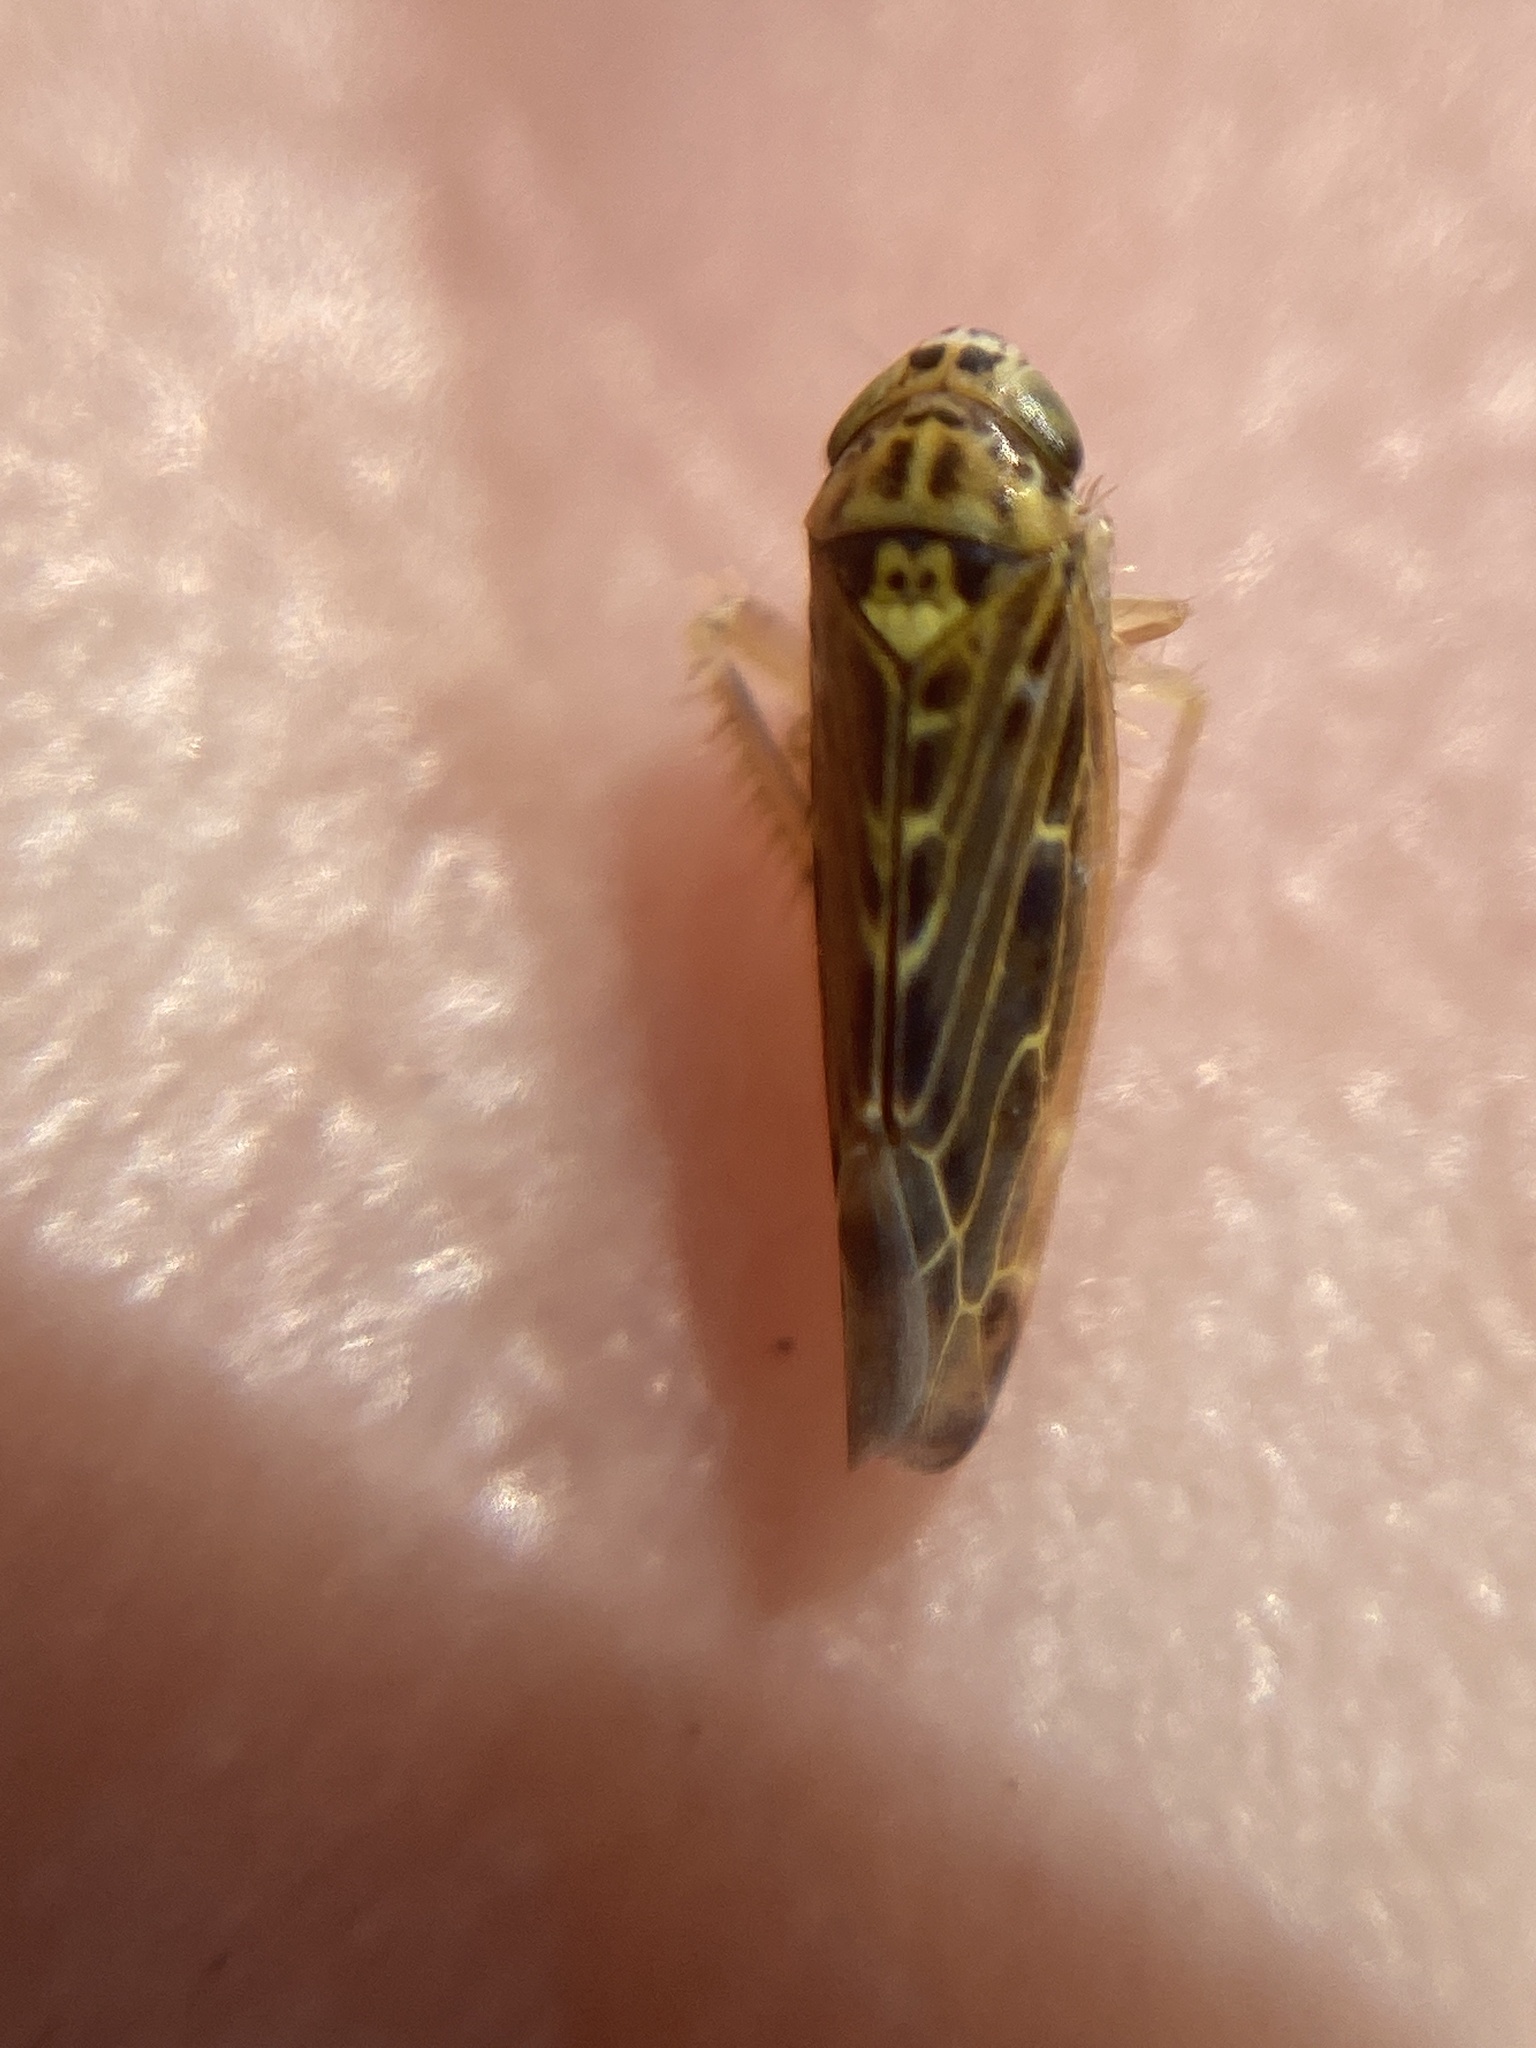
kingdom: Animalia
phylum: Arthropoda
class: Insecta
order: Hemiptera
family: Cicadellidae
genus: Lamprotettix
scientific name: Lamprotettix nitidulus
